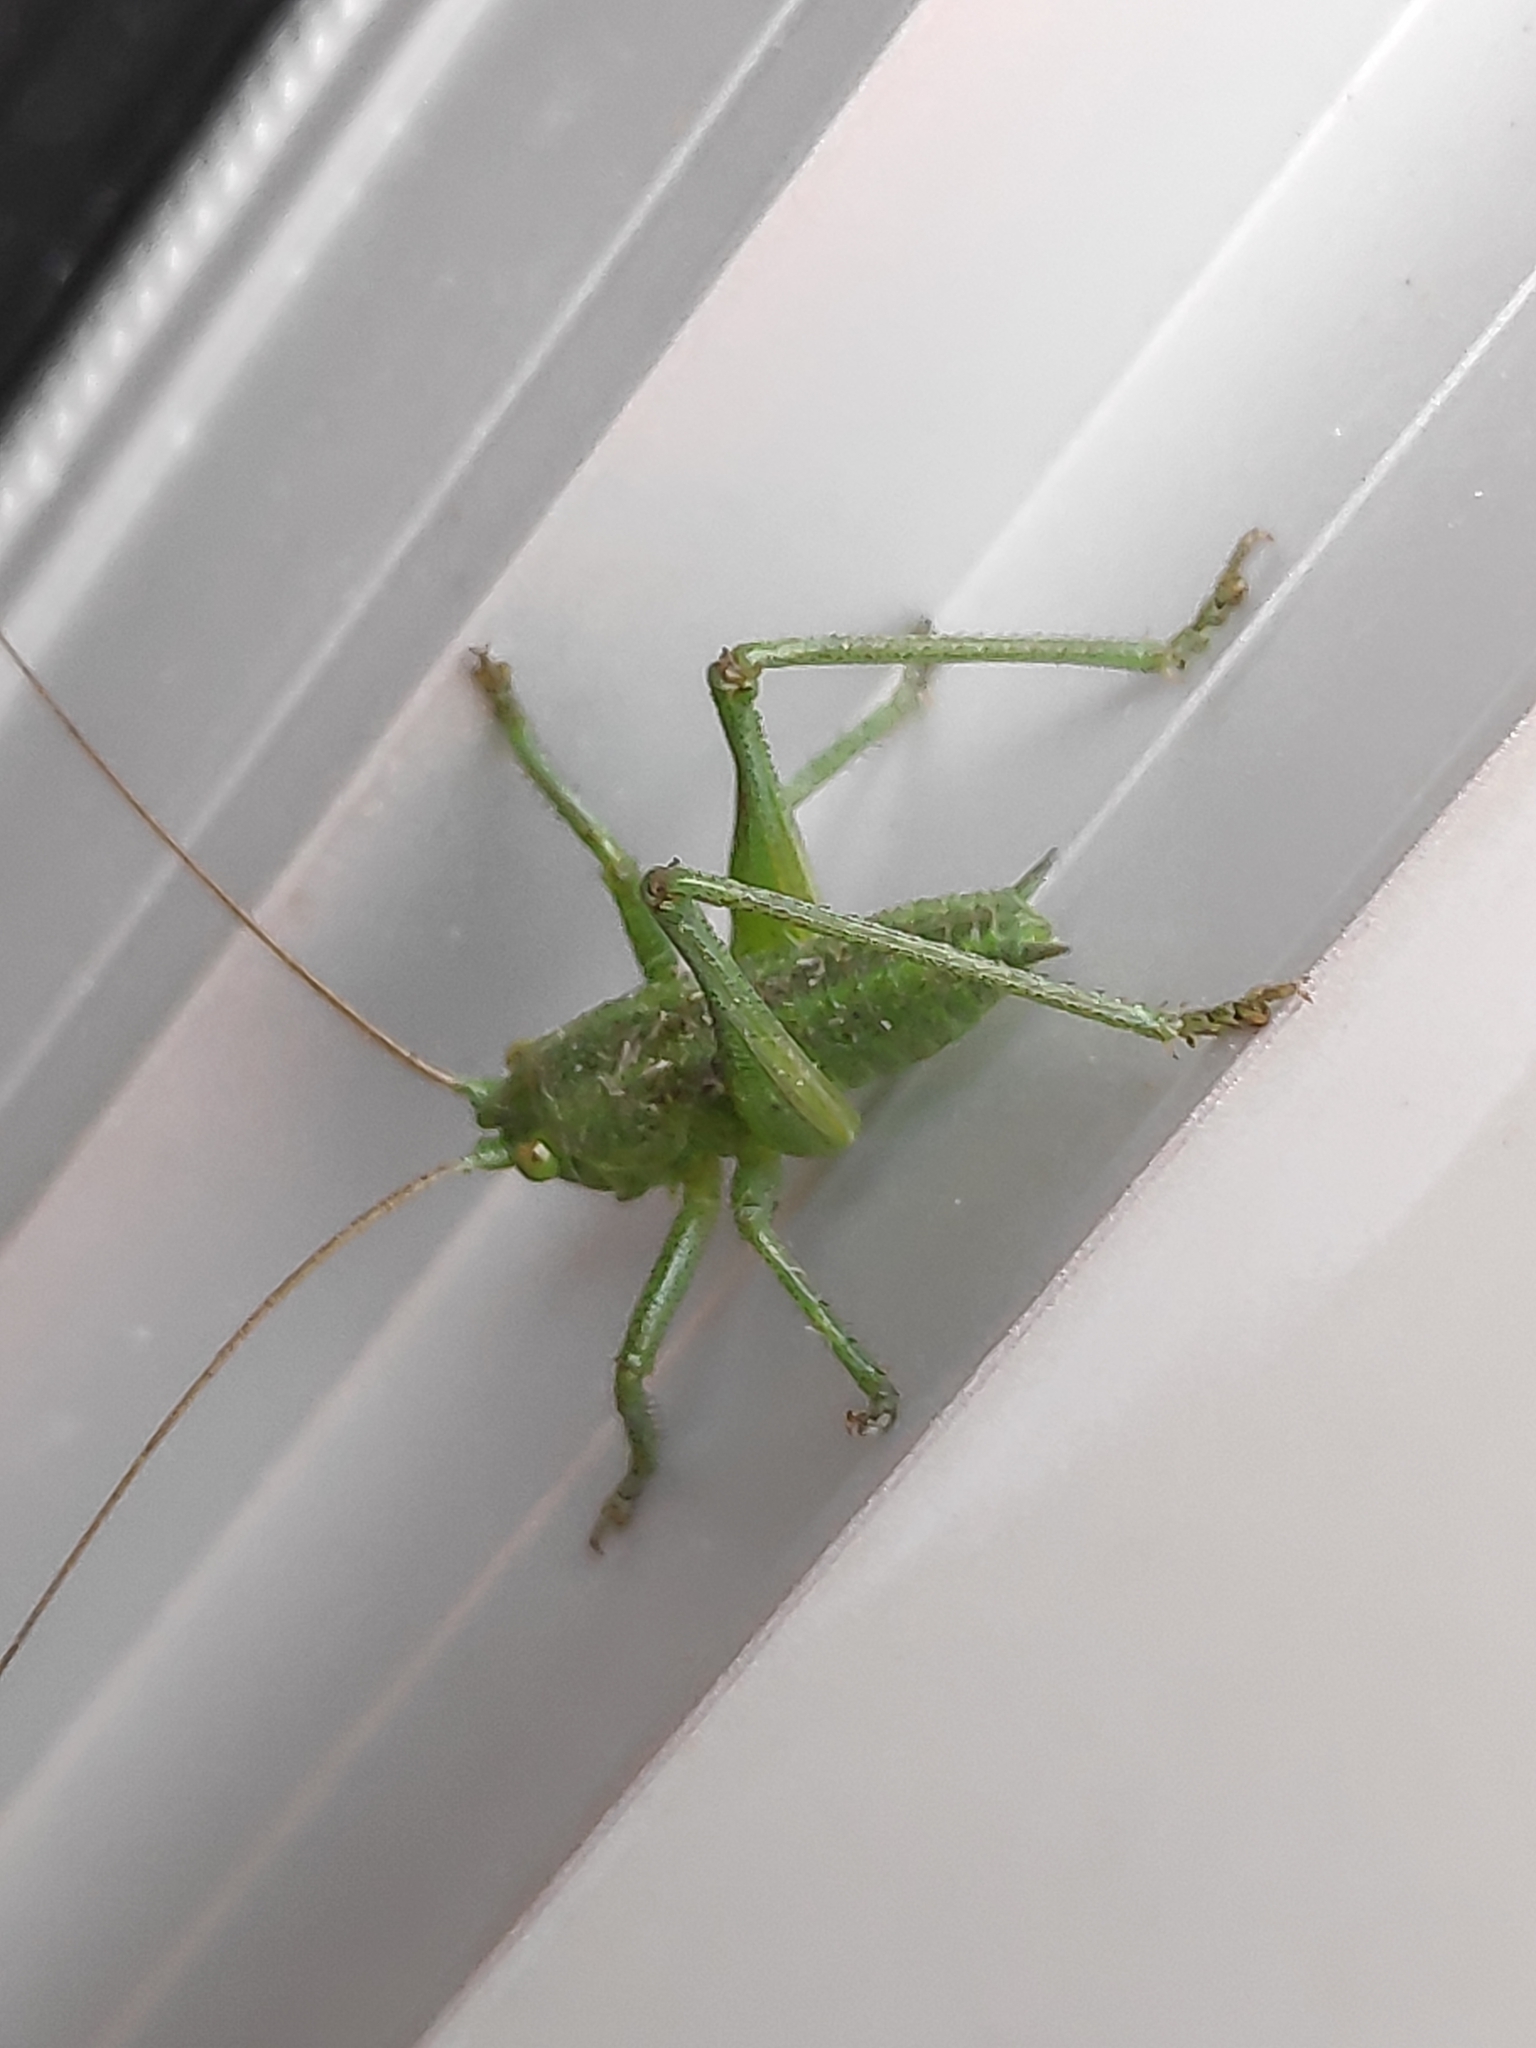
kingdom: Animalia
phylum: Arthropoda
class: Insecta
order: Orthoptera
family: Tettigoniidae
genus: Tettigonia
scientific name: Tettigonia viridissima
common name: Great green bush-cricket
